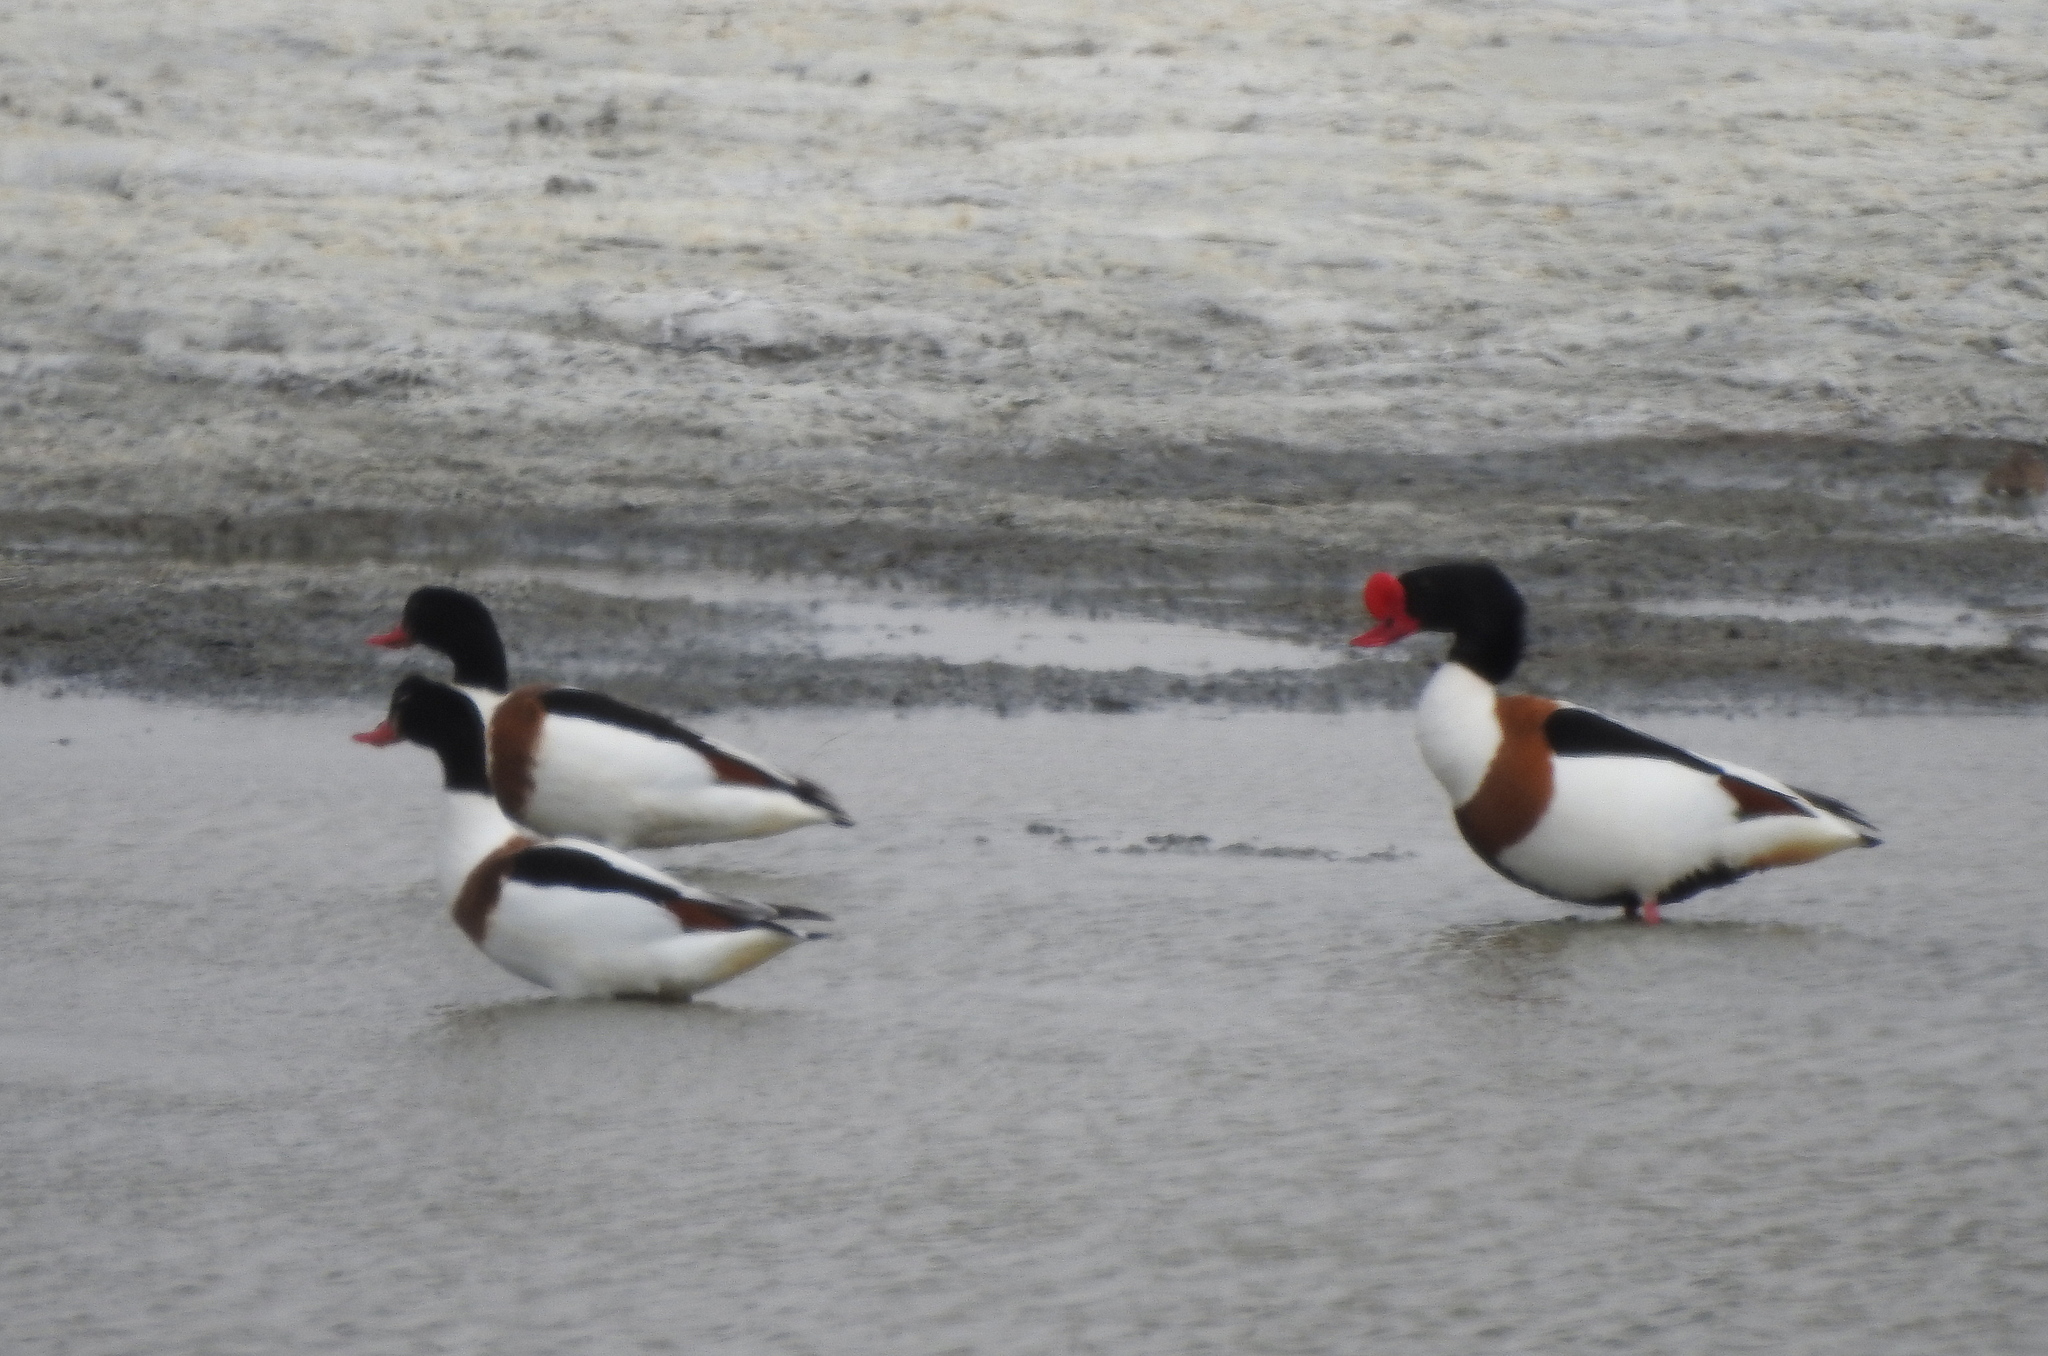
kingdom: Animalia
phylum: Chordata
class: Aves
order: Anseriformes
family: Anatidae
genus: Tadorna
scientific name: Tadorna tadorna
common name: Common shelduck
